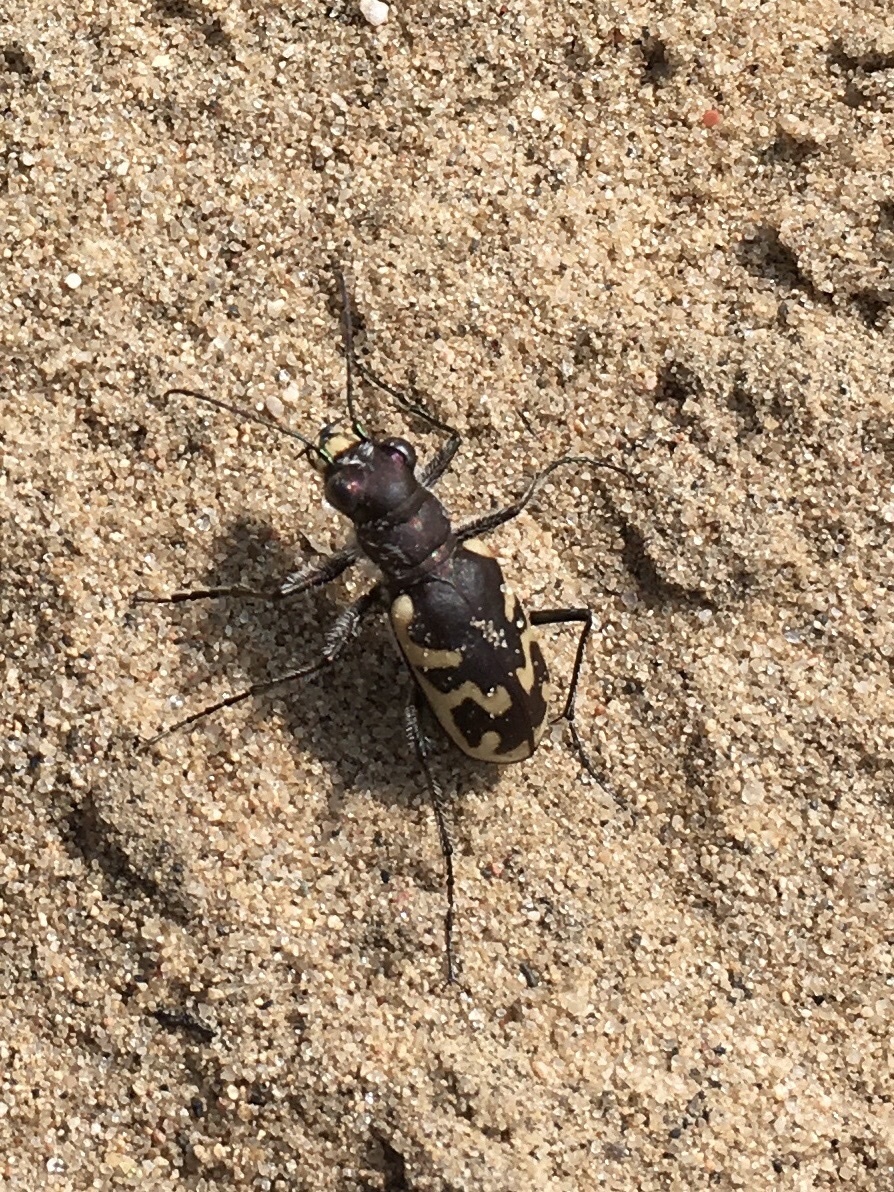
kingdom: Animalia
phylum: Arthropoda
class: Insecta
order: Coleoptera
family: Carabidae
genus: Cicindela
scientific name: Cicindela formosa
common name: Big sand tiger beetle
